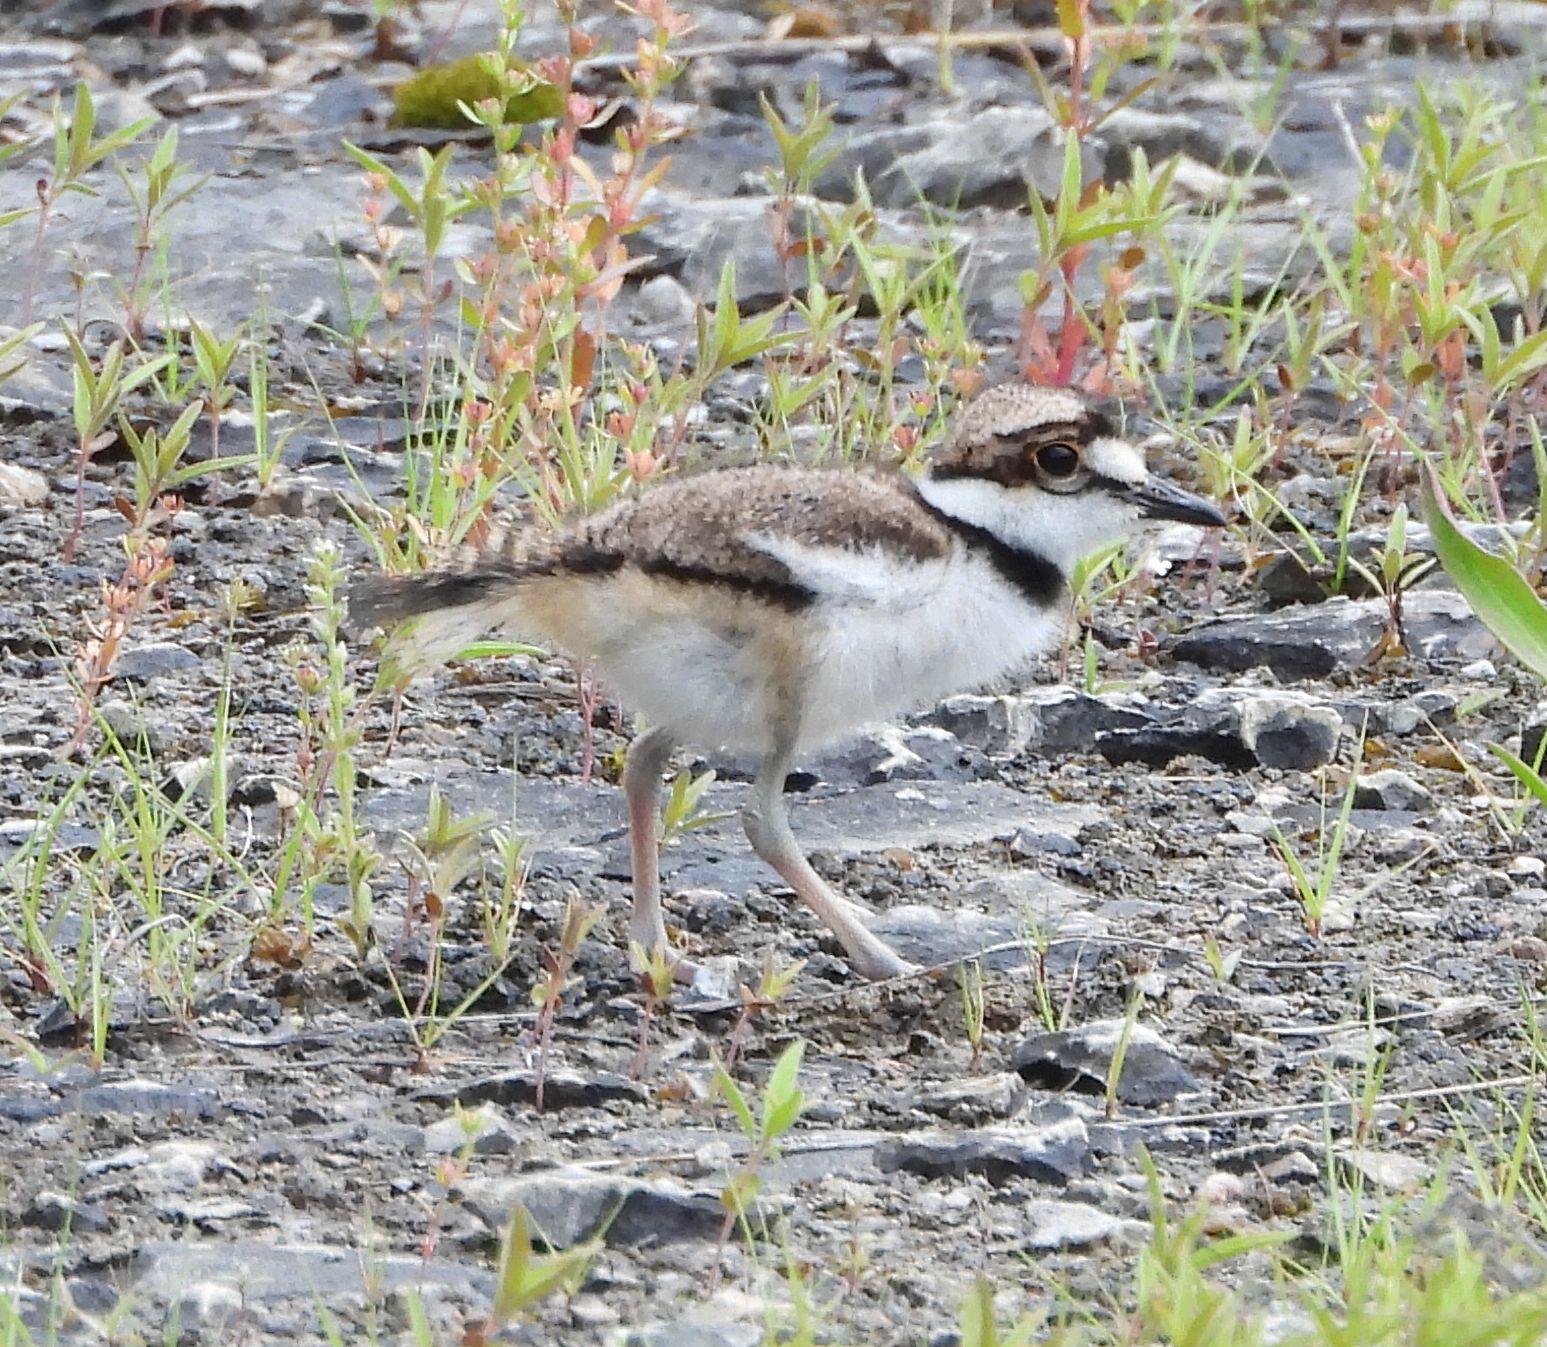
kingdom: Animalia
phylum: Chordata
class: Aves
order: Charadriiformes
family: Charadriidae
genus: Charadrius
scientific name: Charadrius vociferus
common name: Killdeer
